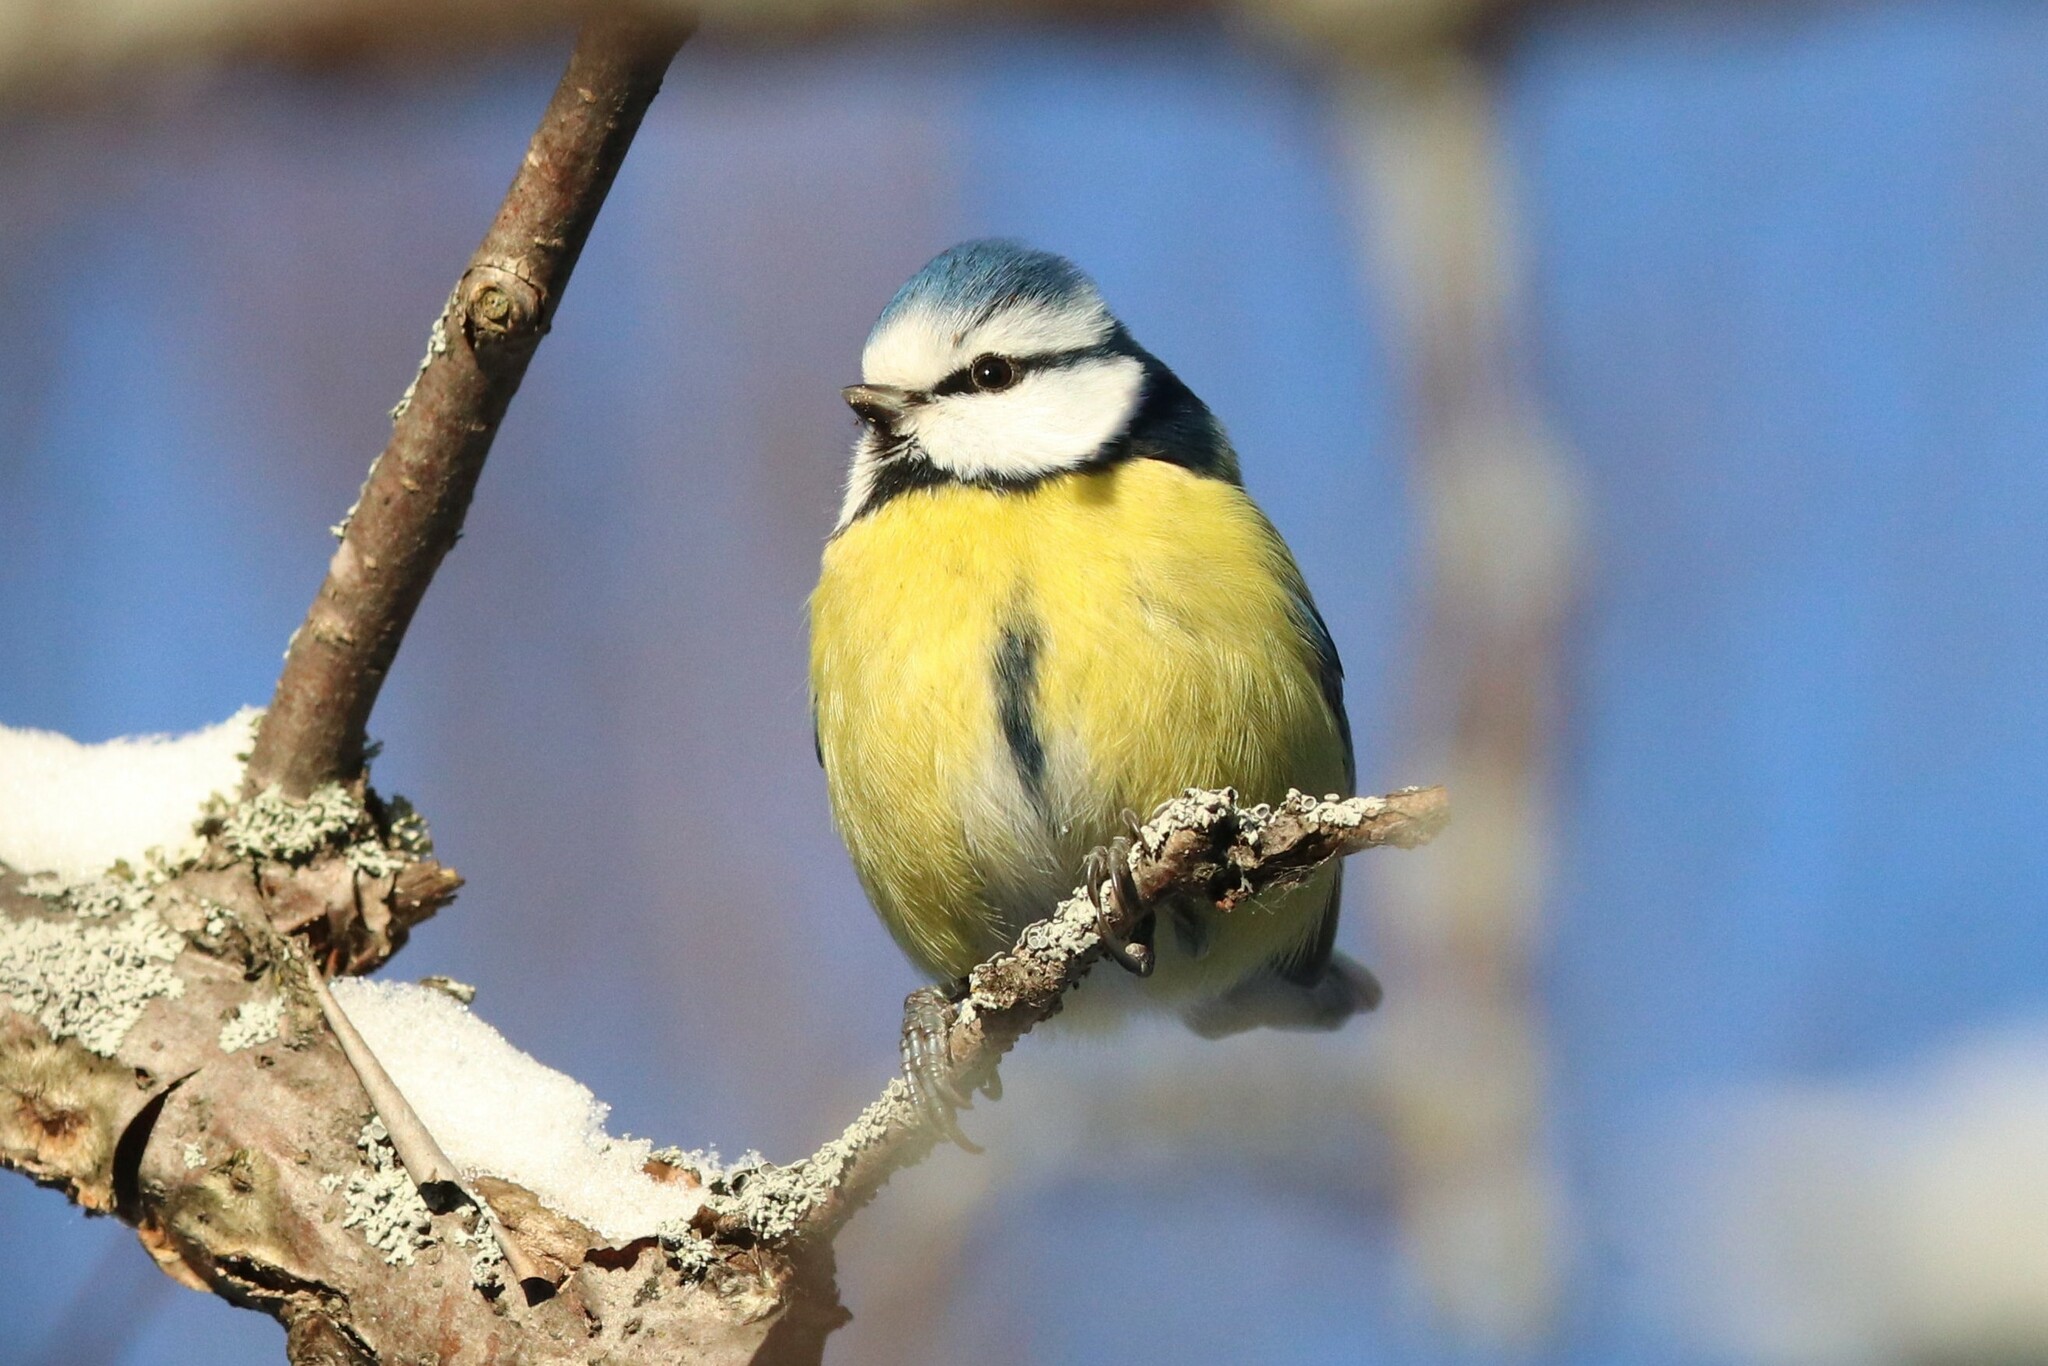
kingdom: Animalia
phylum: Chordata
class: Aves
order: Passeriformes
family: Paridae
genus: Cyanistes
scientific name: Cyanistes caeruleus
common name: Eurasian blue tit
